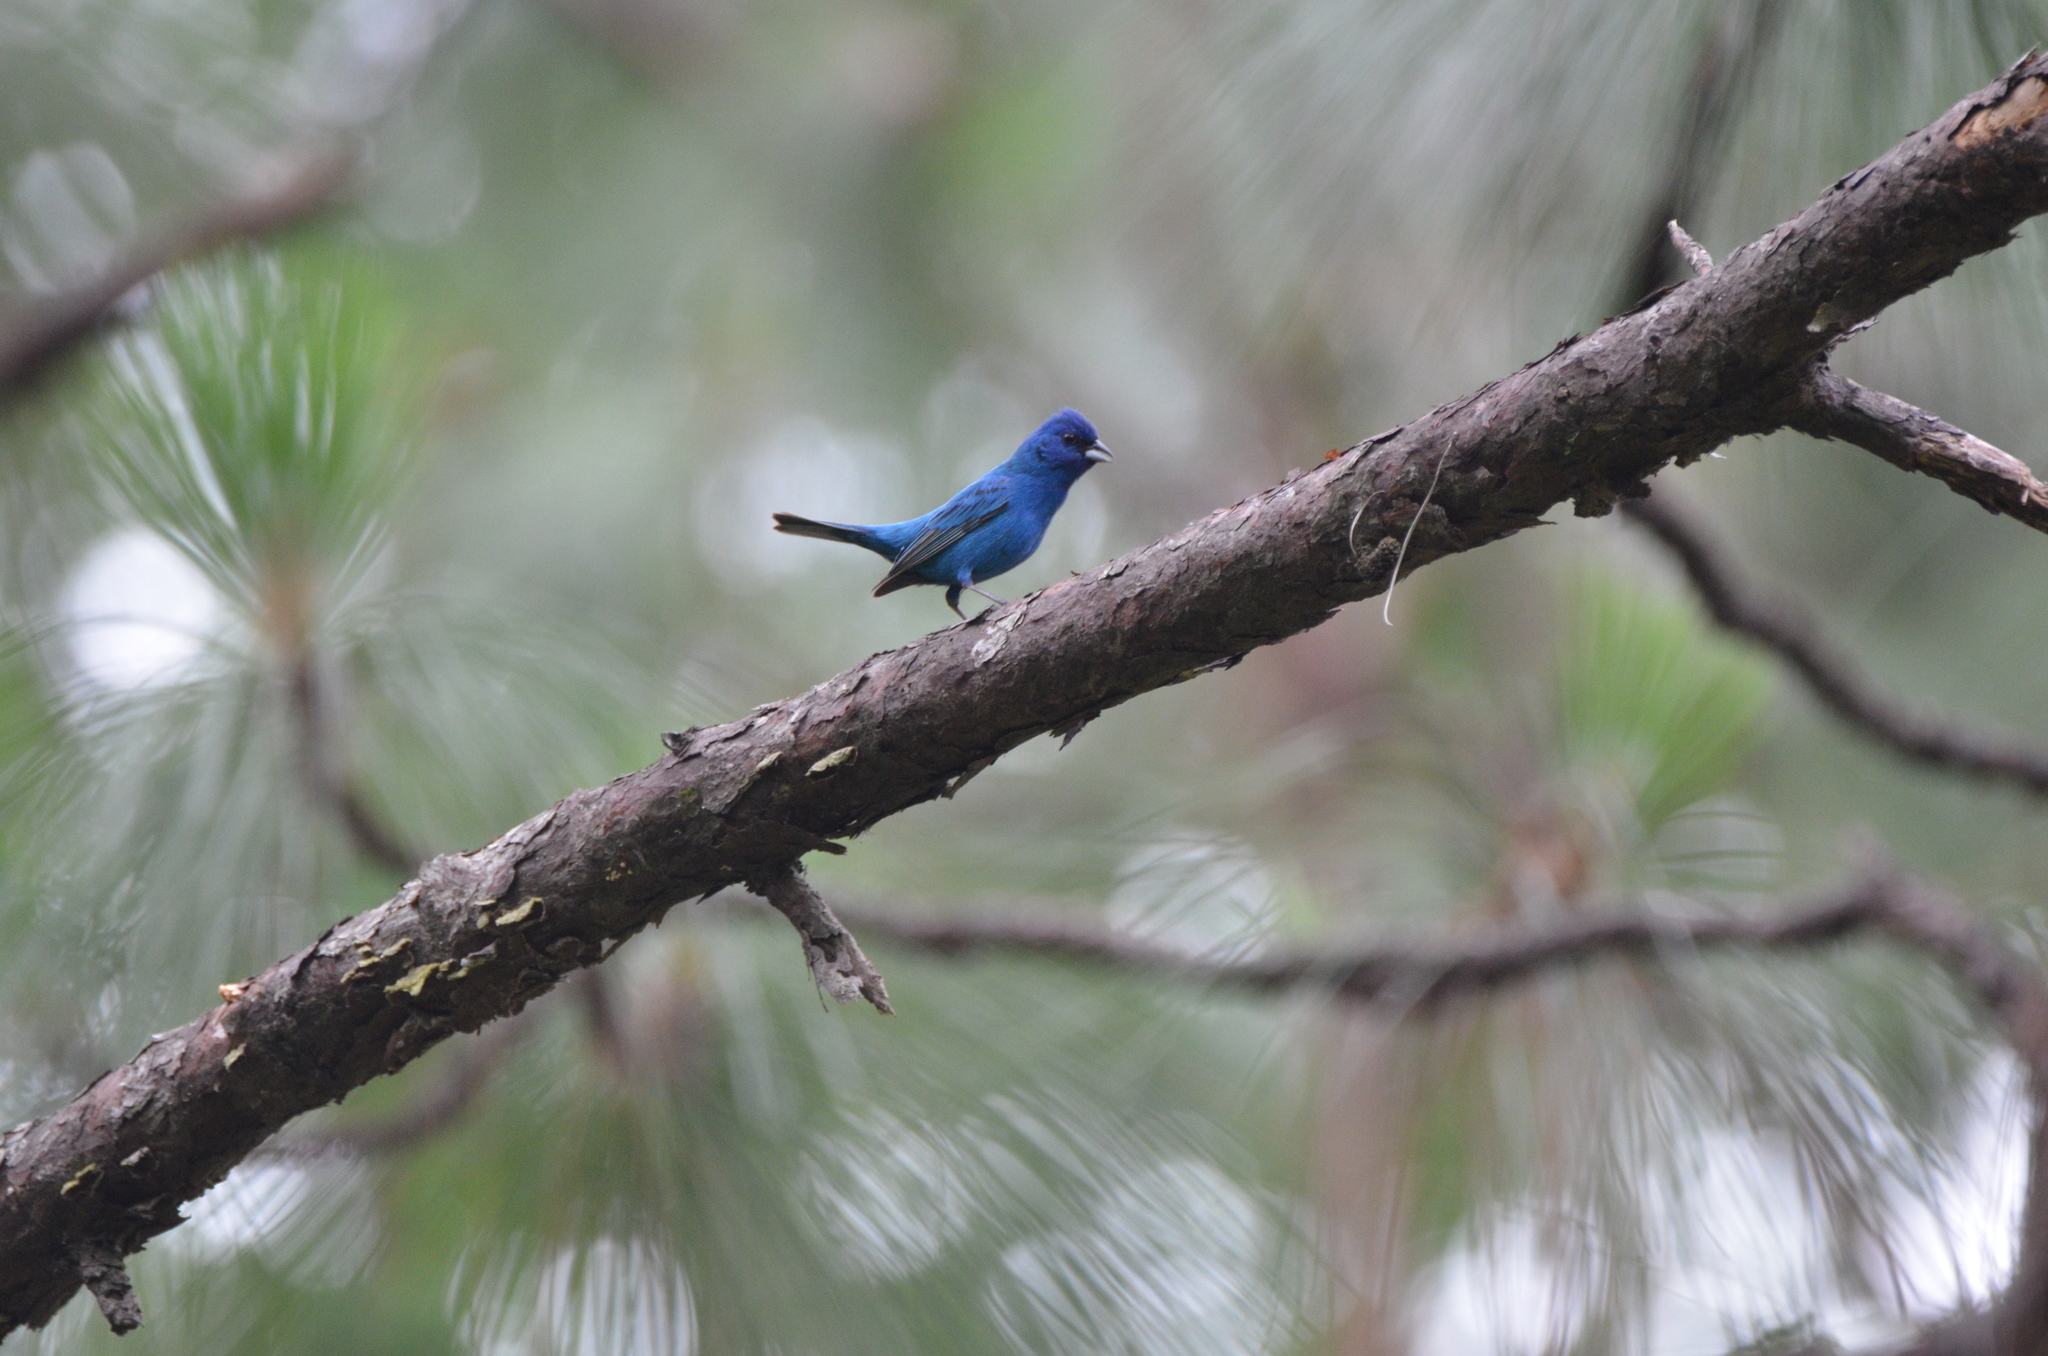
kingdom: Animalia
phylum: Chordata
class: Aves
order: Passeriformes
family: Cardinalidae
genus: Passerina
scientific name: Passerina cyanea
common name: Indigo bunting
